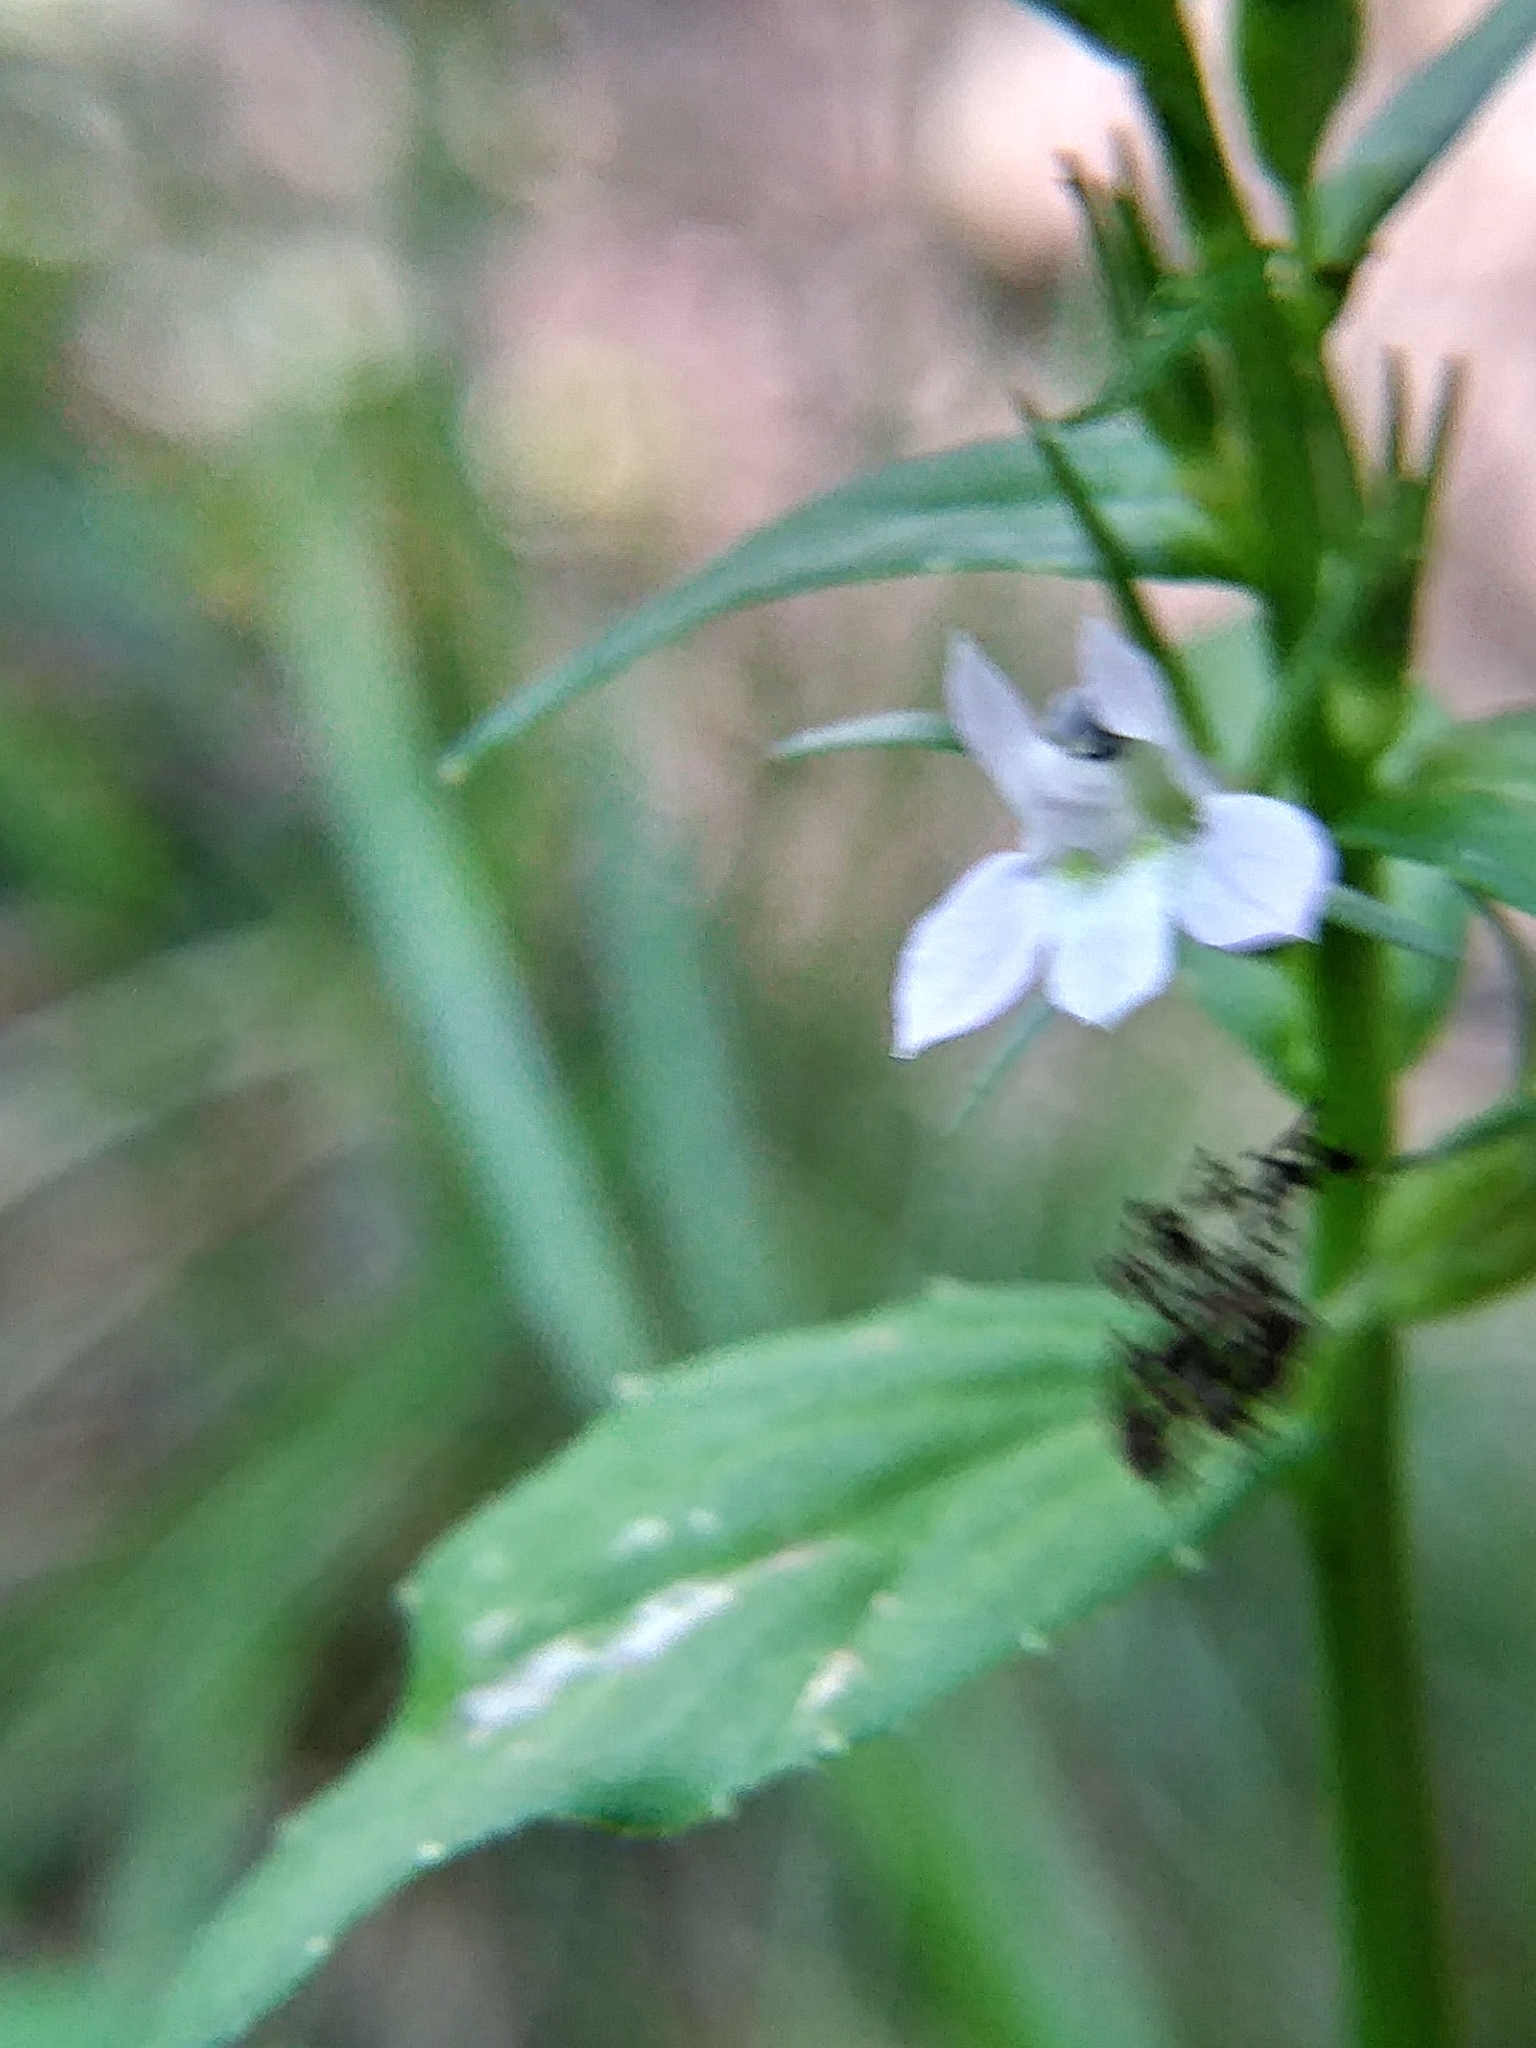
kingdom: Plantae
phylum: Tracheophyta
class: Magnoliopsida
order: Asterales
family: Campanulaceae
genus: Lobelia
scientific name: Lobelia inflata
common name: Indian tobacco
